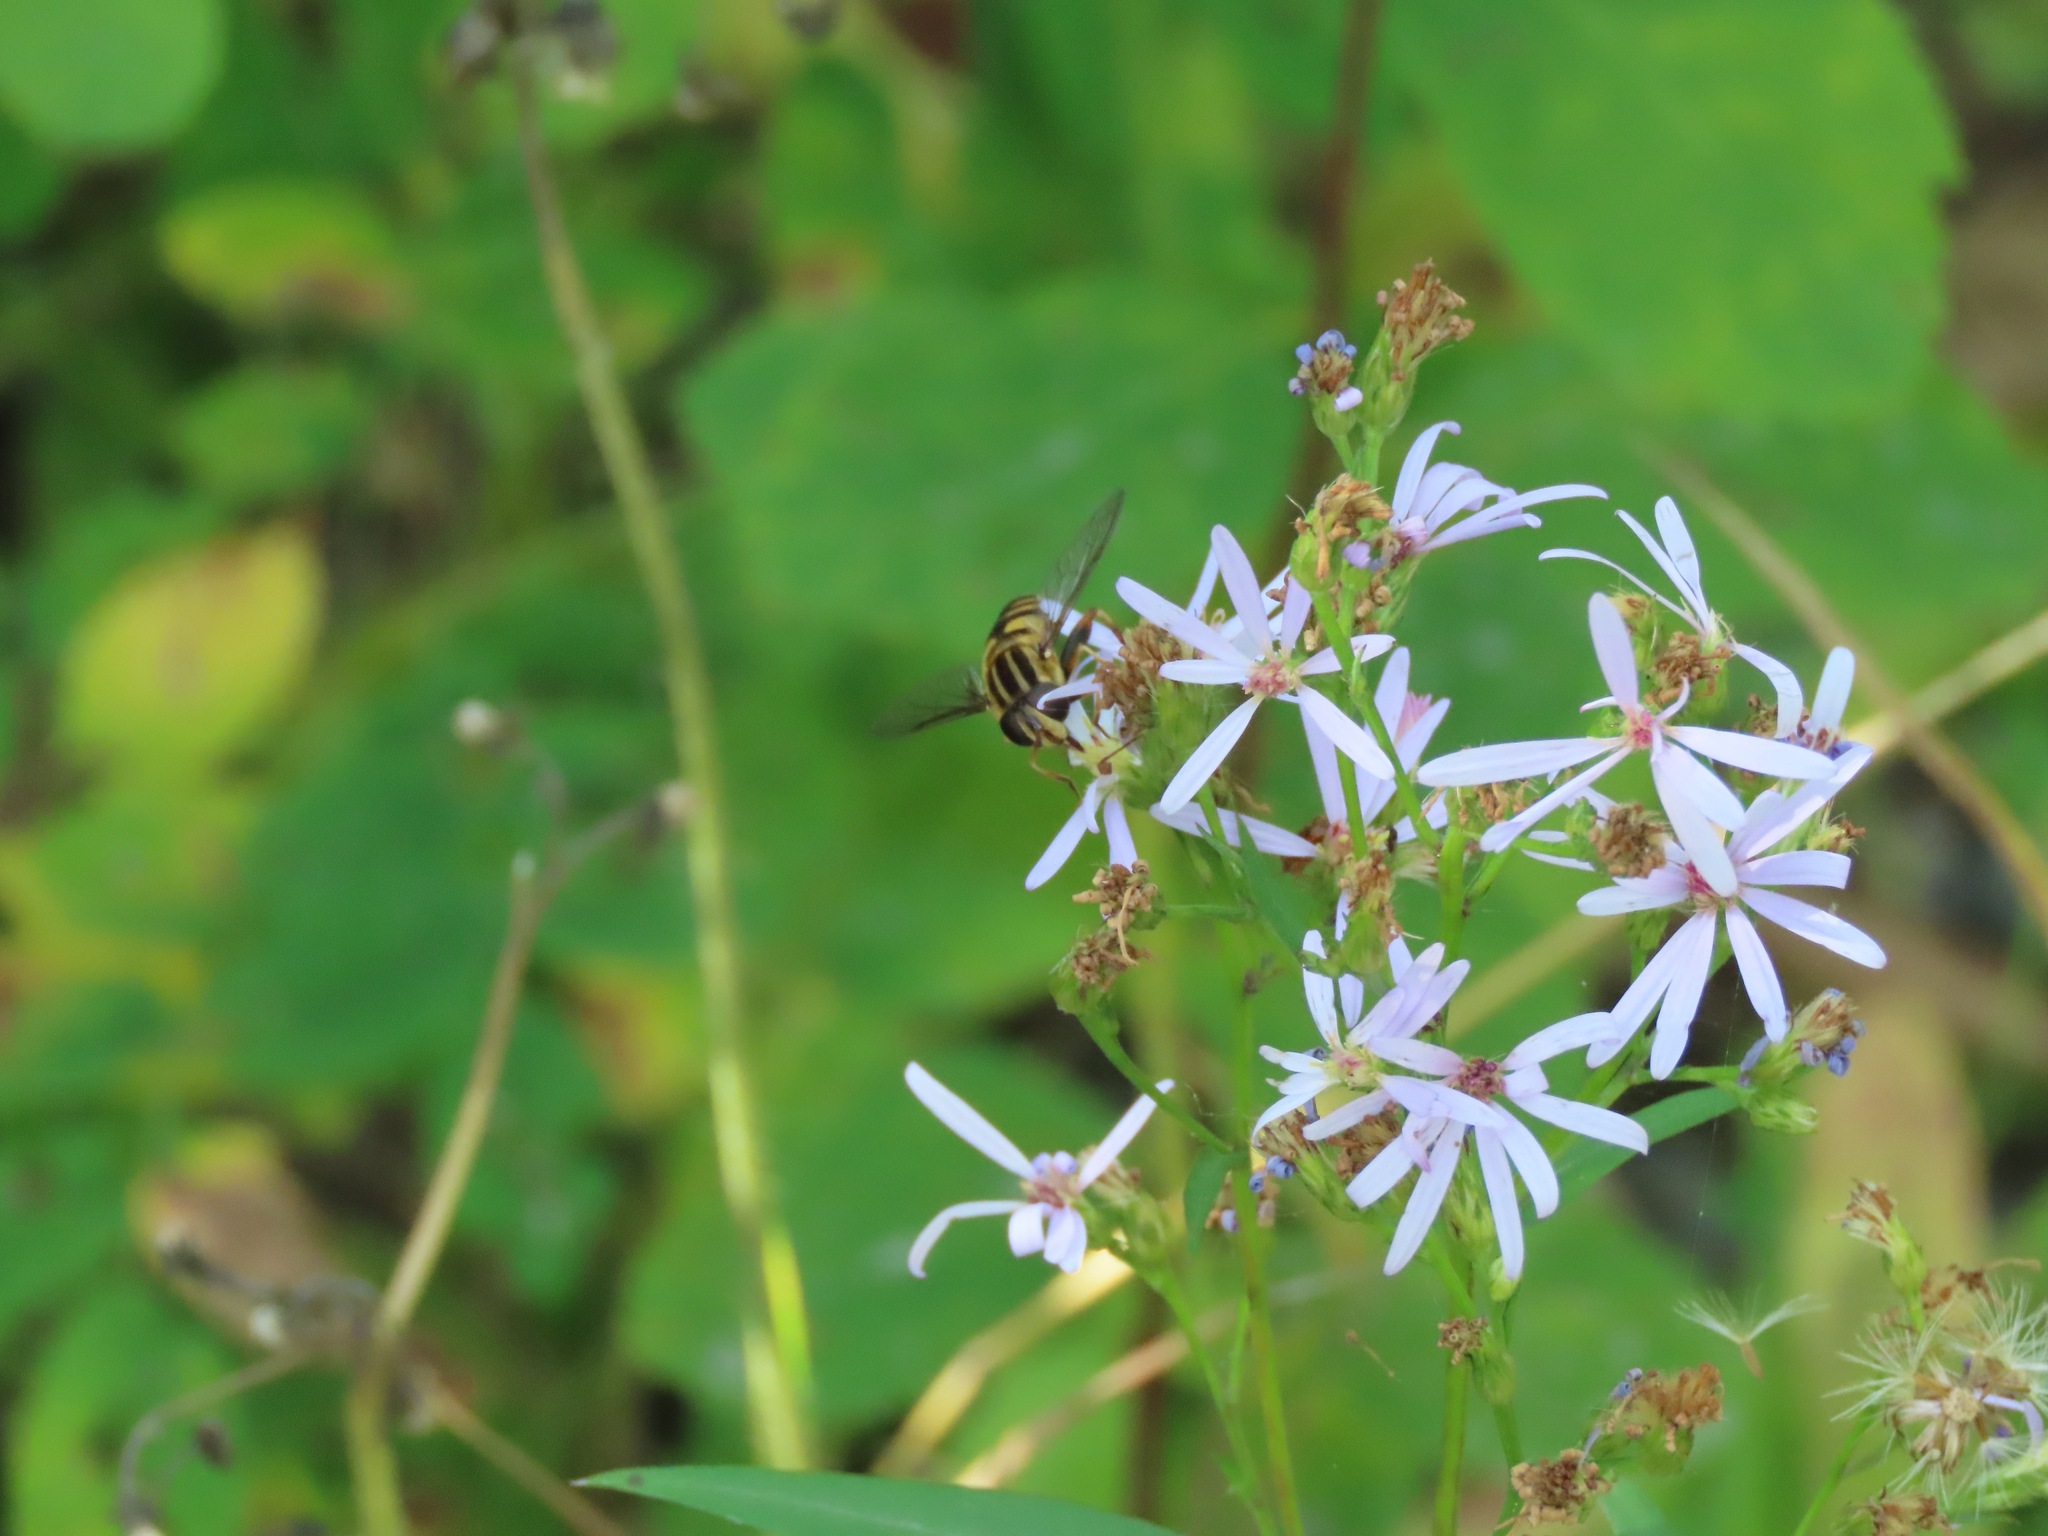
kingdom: Animalia
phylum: Arthropoda
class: Insecta
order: Diptera
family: Syrphidae
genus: Helophilus
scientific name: Helophilus fasciatus
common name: Narrow-headed marsh fly
